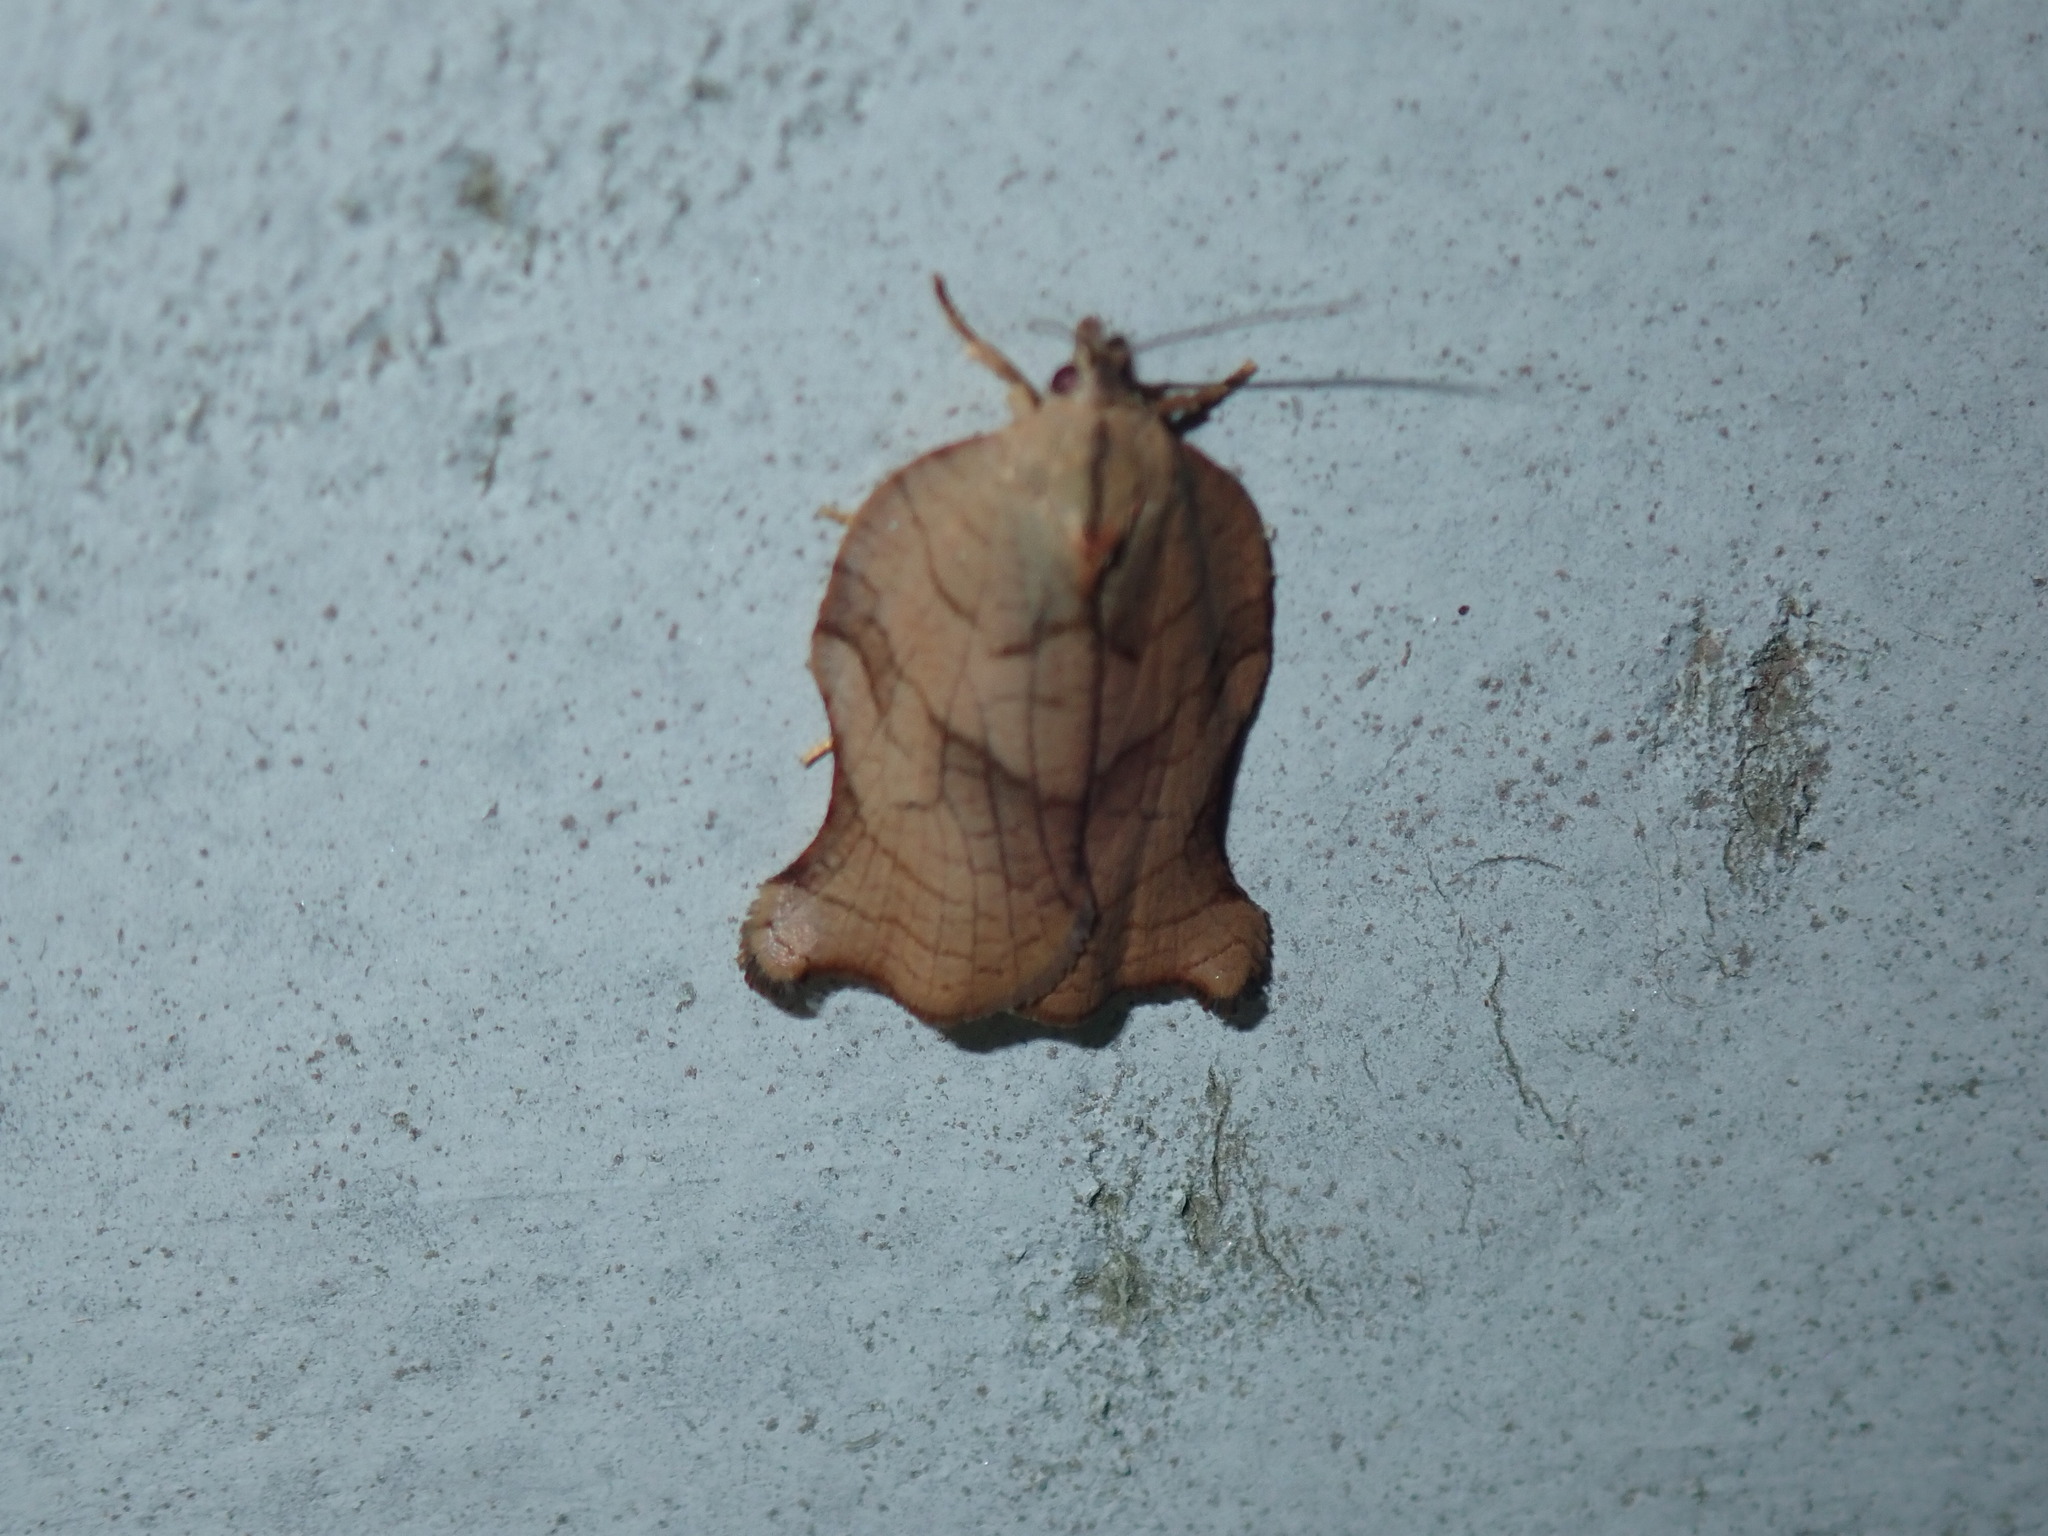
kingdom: Animalia
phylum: Arthropoda
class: Insecta
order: Lepidoptera
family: Tortricidae
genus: Archips
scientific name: Archips purpurana
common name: Omnivorous leafroller
